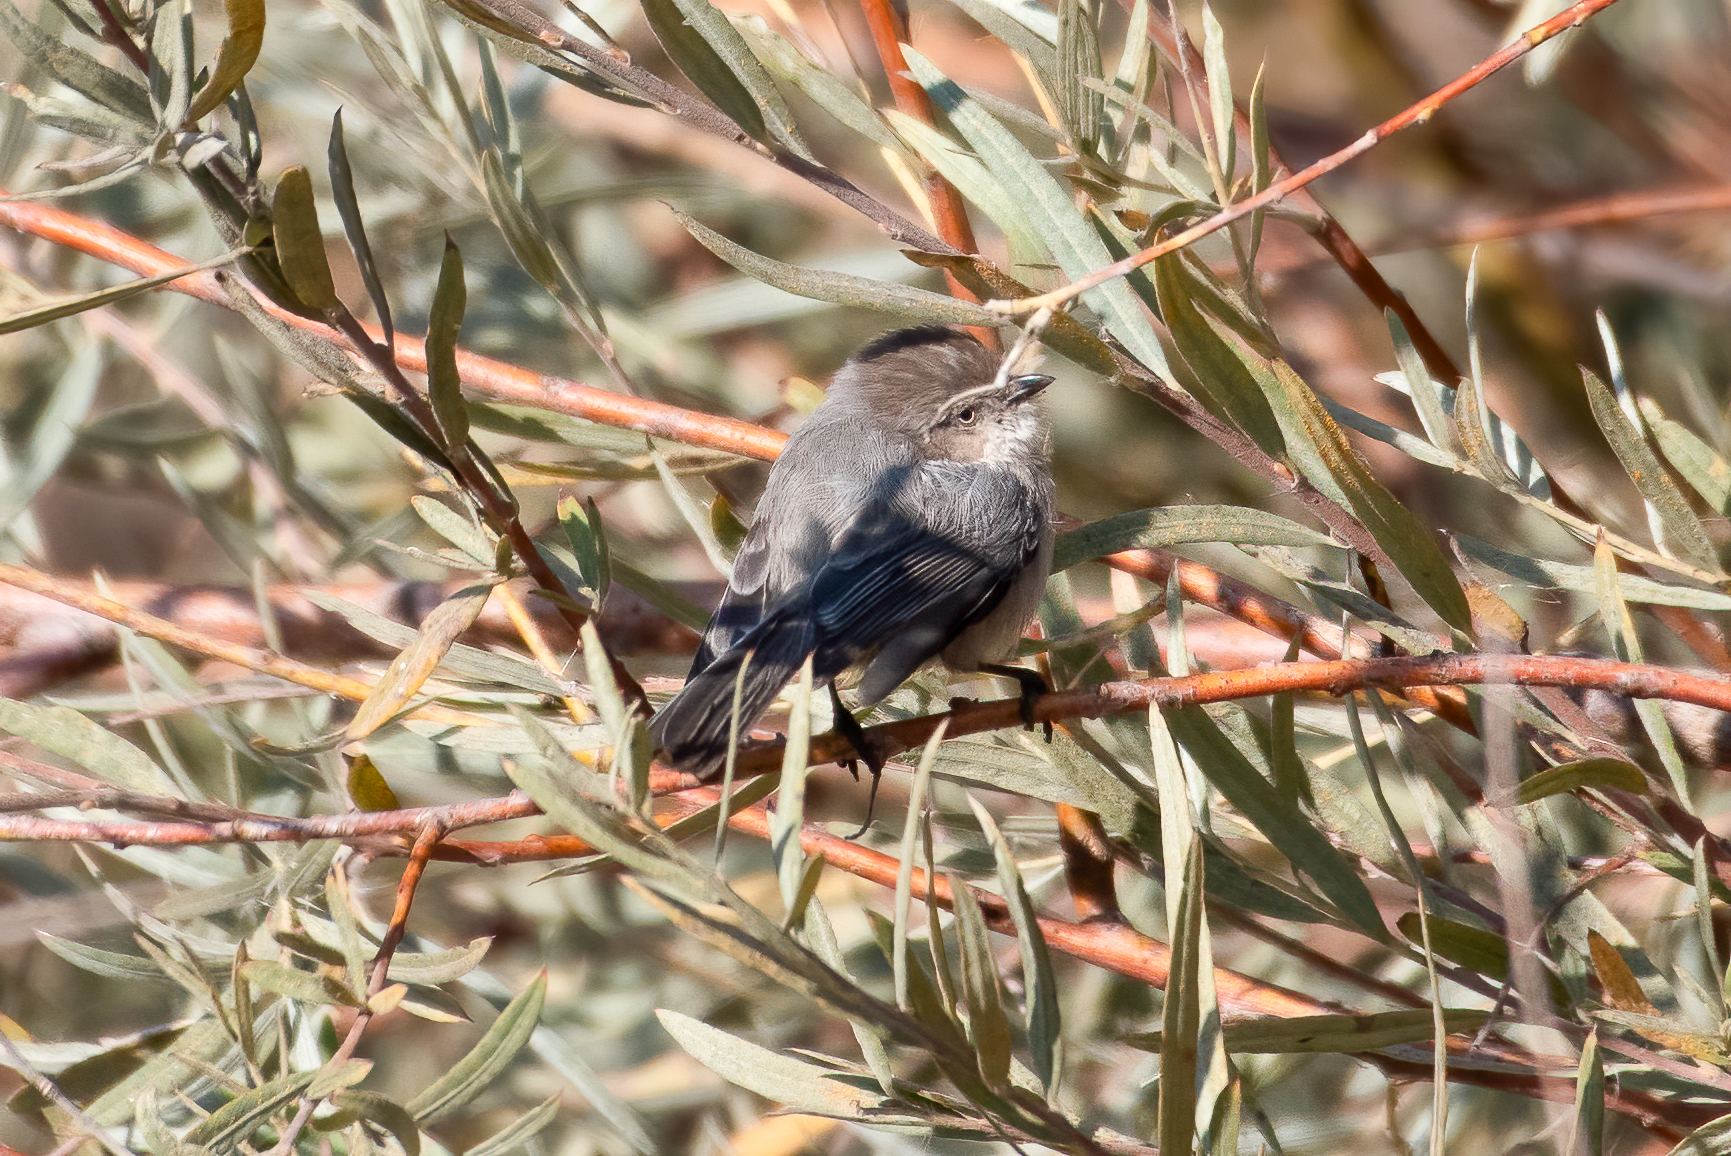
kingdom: Animalia
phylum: Chordata
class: Aves
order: Passeriformes
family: Aegithalidae
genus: Psaltriparus
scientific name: Psaltriparus minimus
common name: American bushtit
